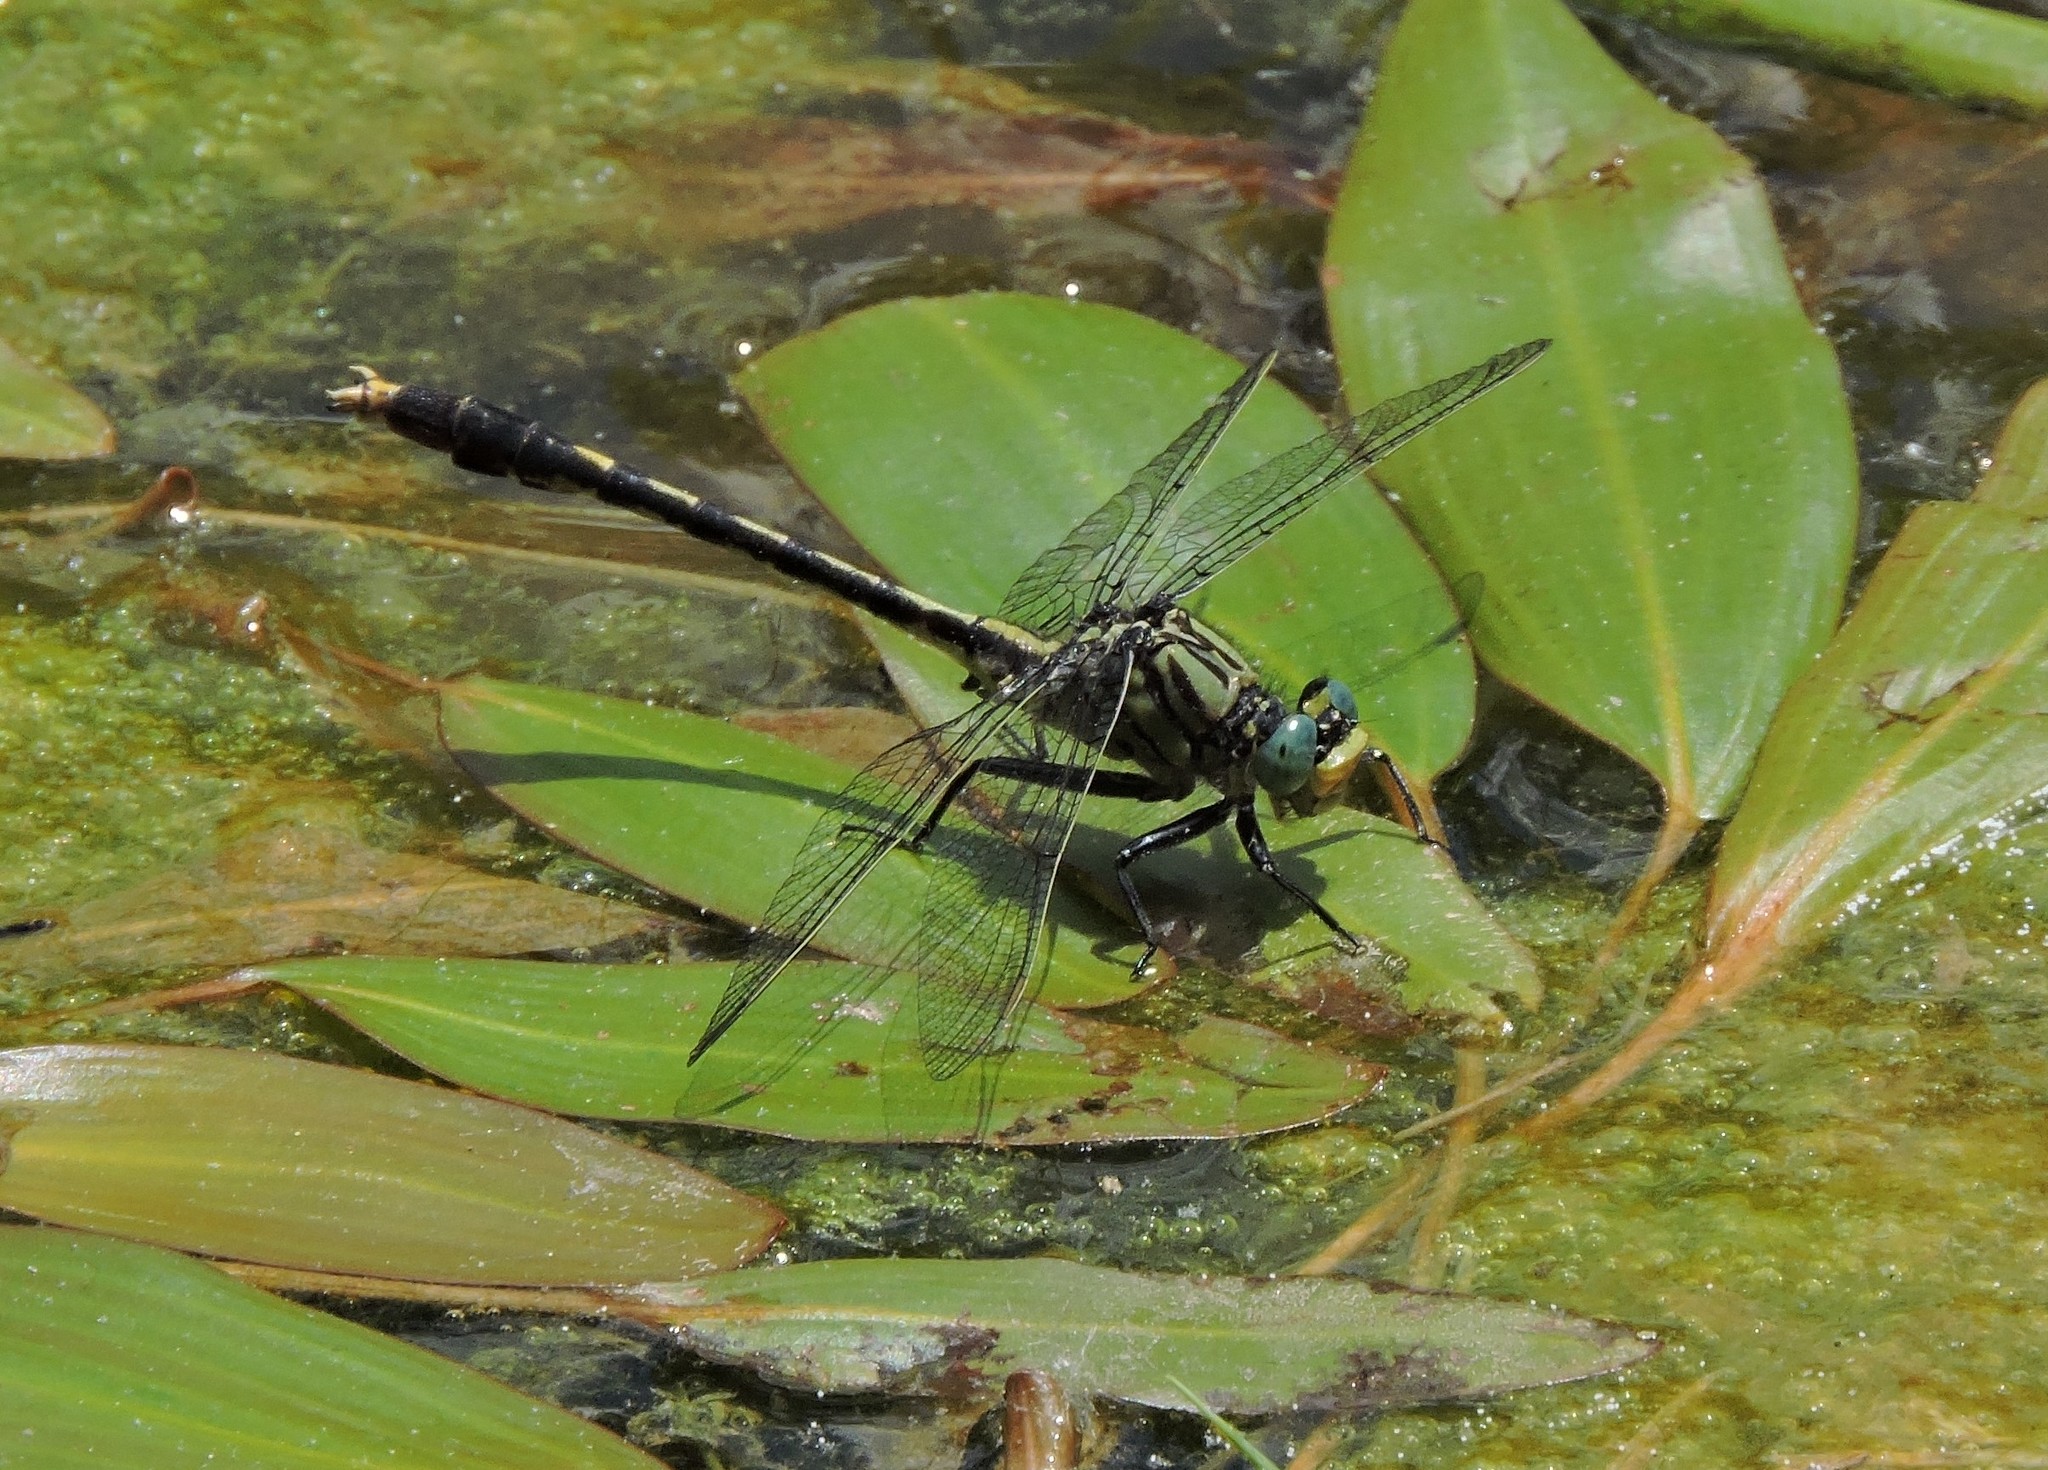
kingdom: Animalia
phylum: Arthropoda
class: Insecta
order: Odonata
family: Gomphidae
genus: Arigomphus
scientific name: Arigomphus villosipes
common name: Unicorn clubtail
